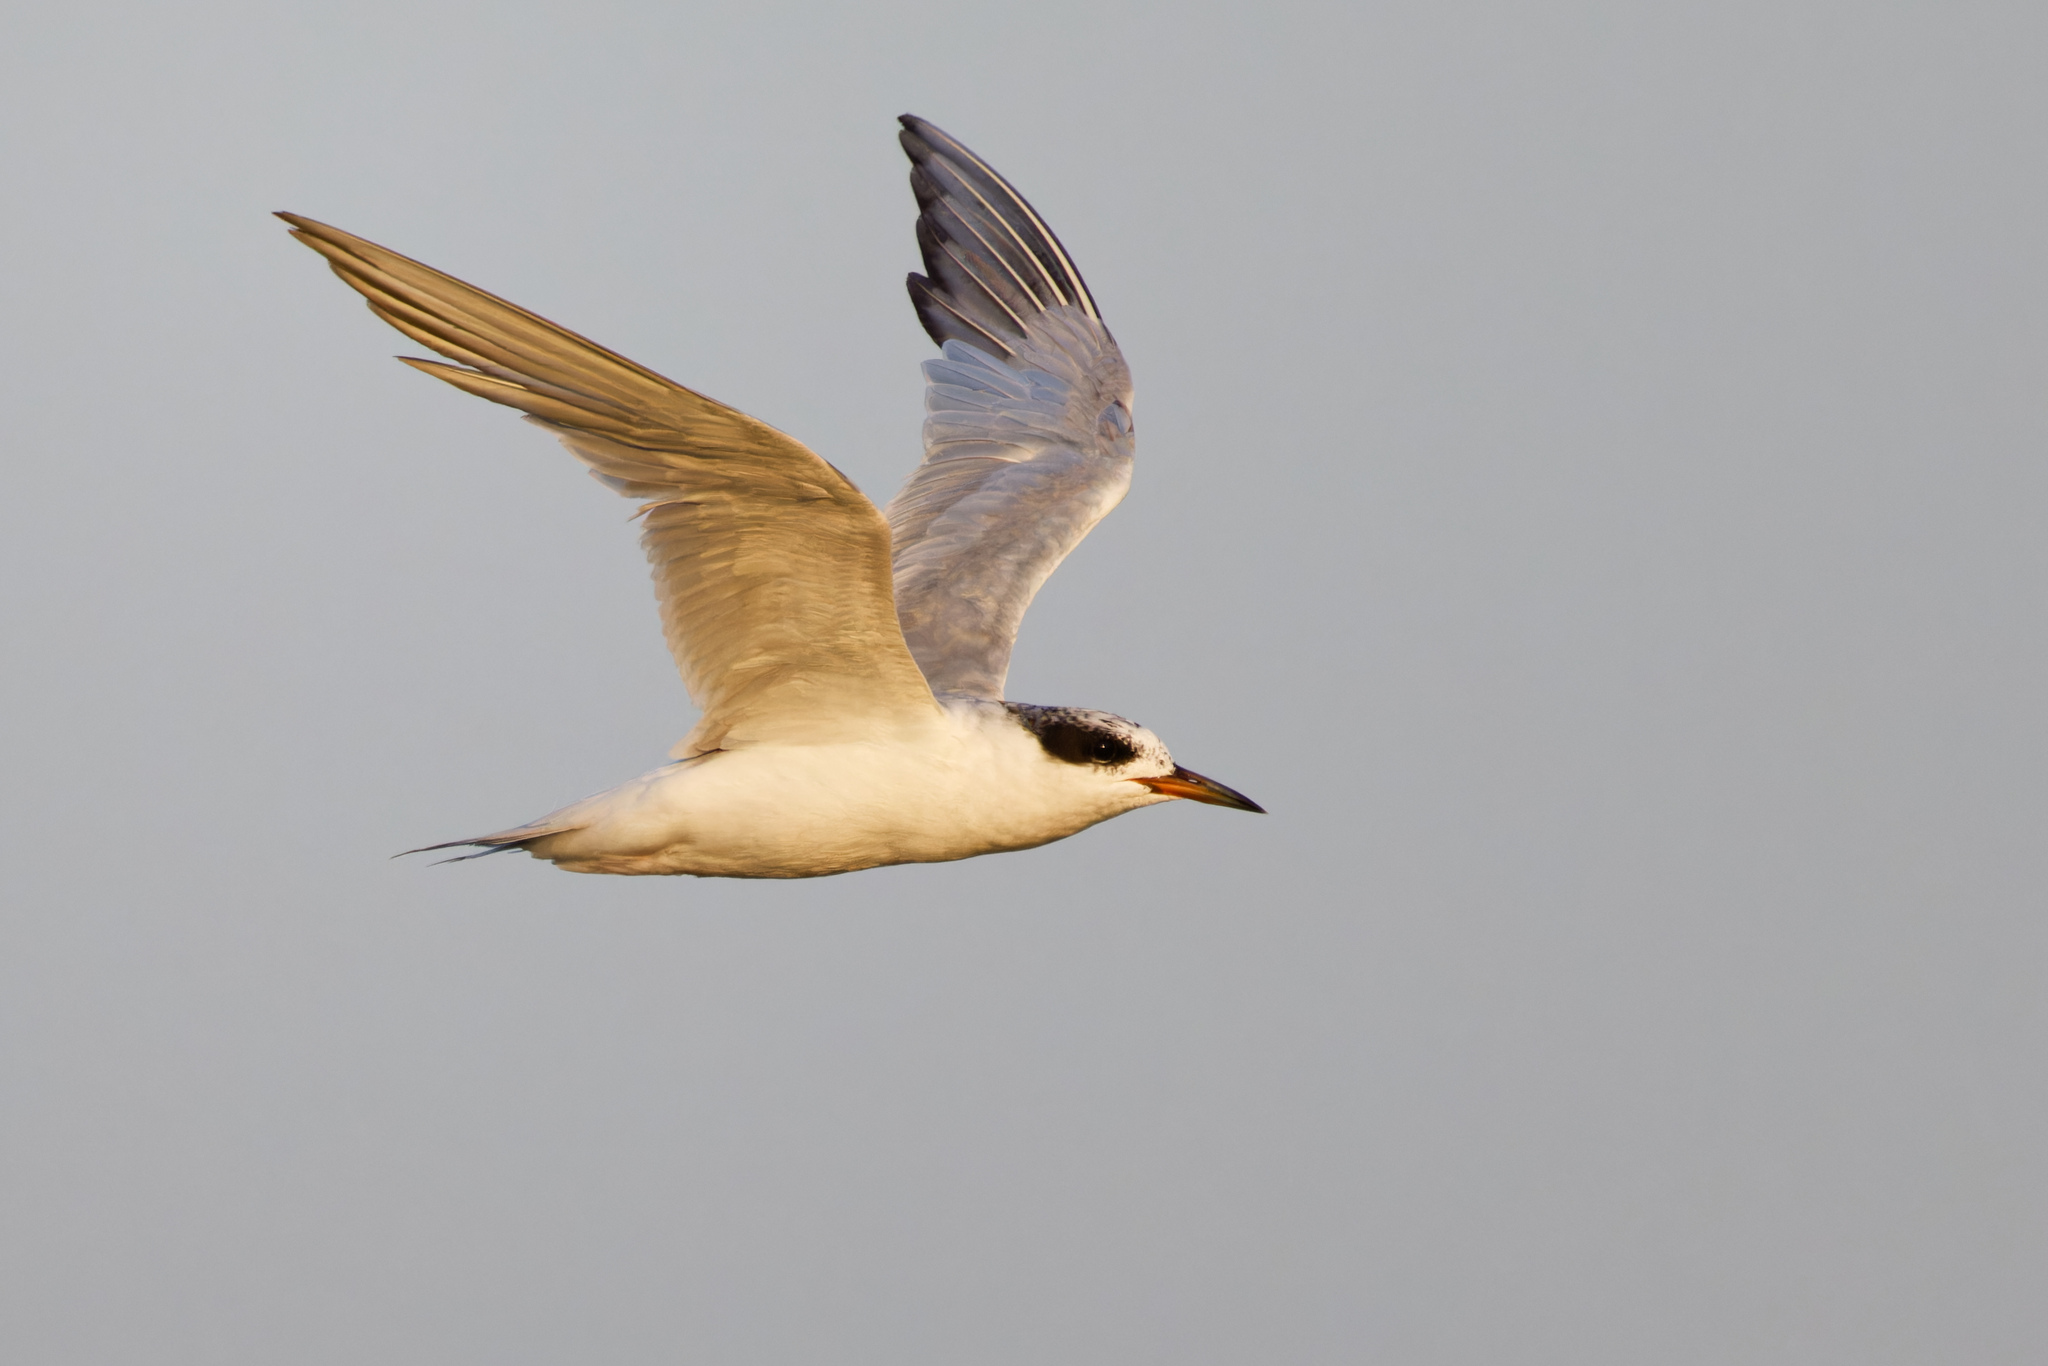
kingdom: Animalia
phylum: Chordata
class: Aves
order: Charadriiformes
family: Laridae
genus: Sterna
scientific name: Sterna forsteri
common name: Forster's tern
